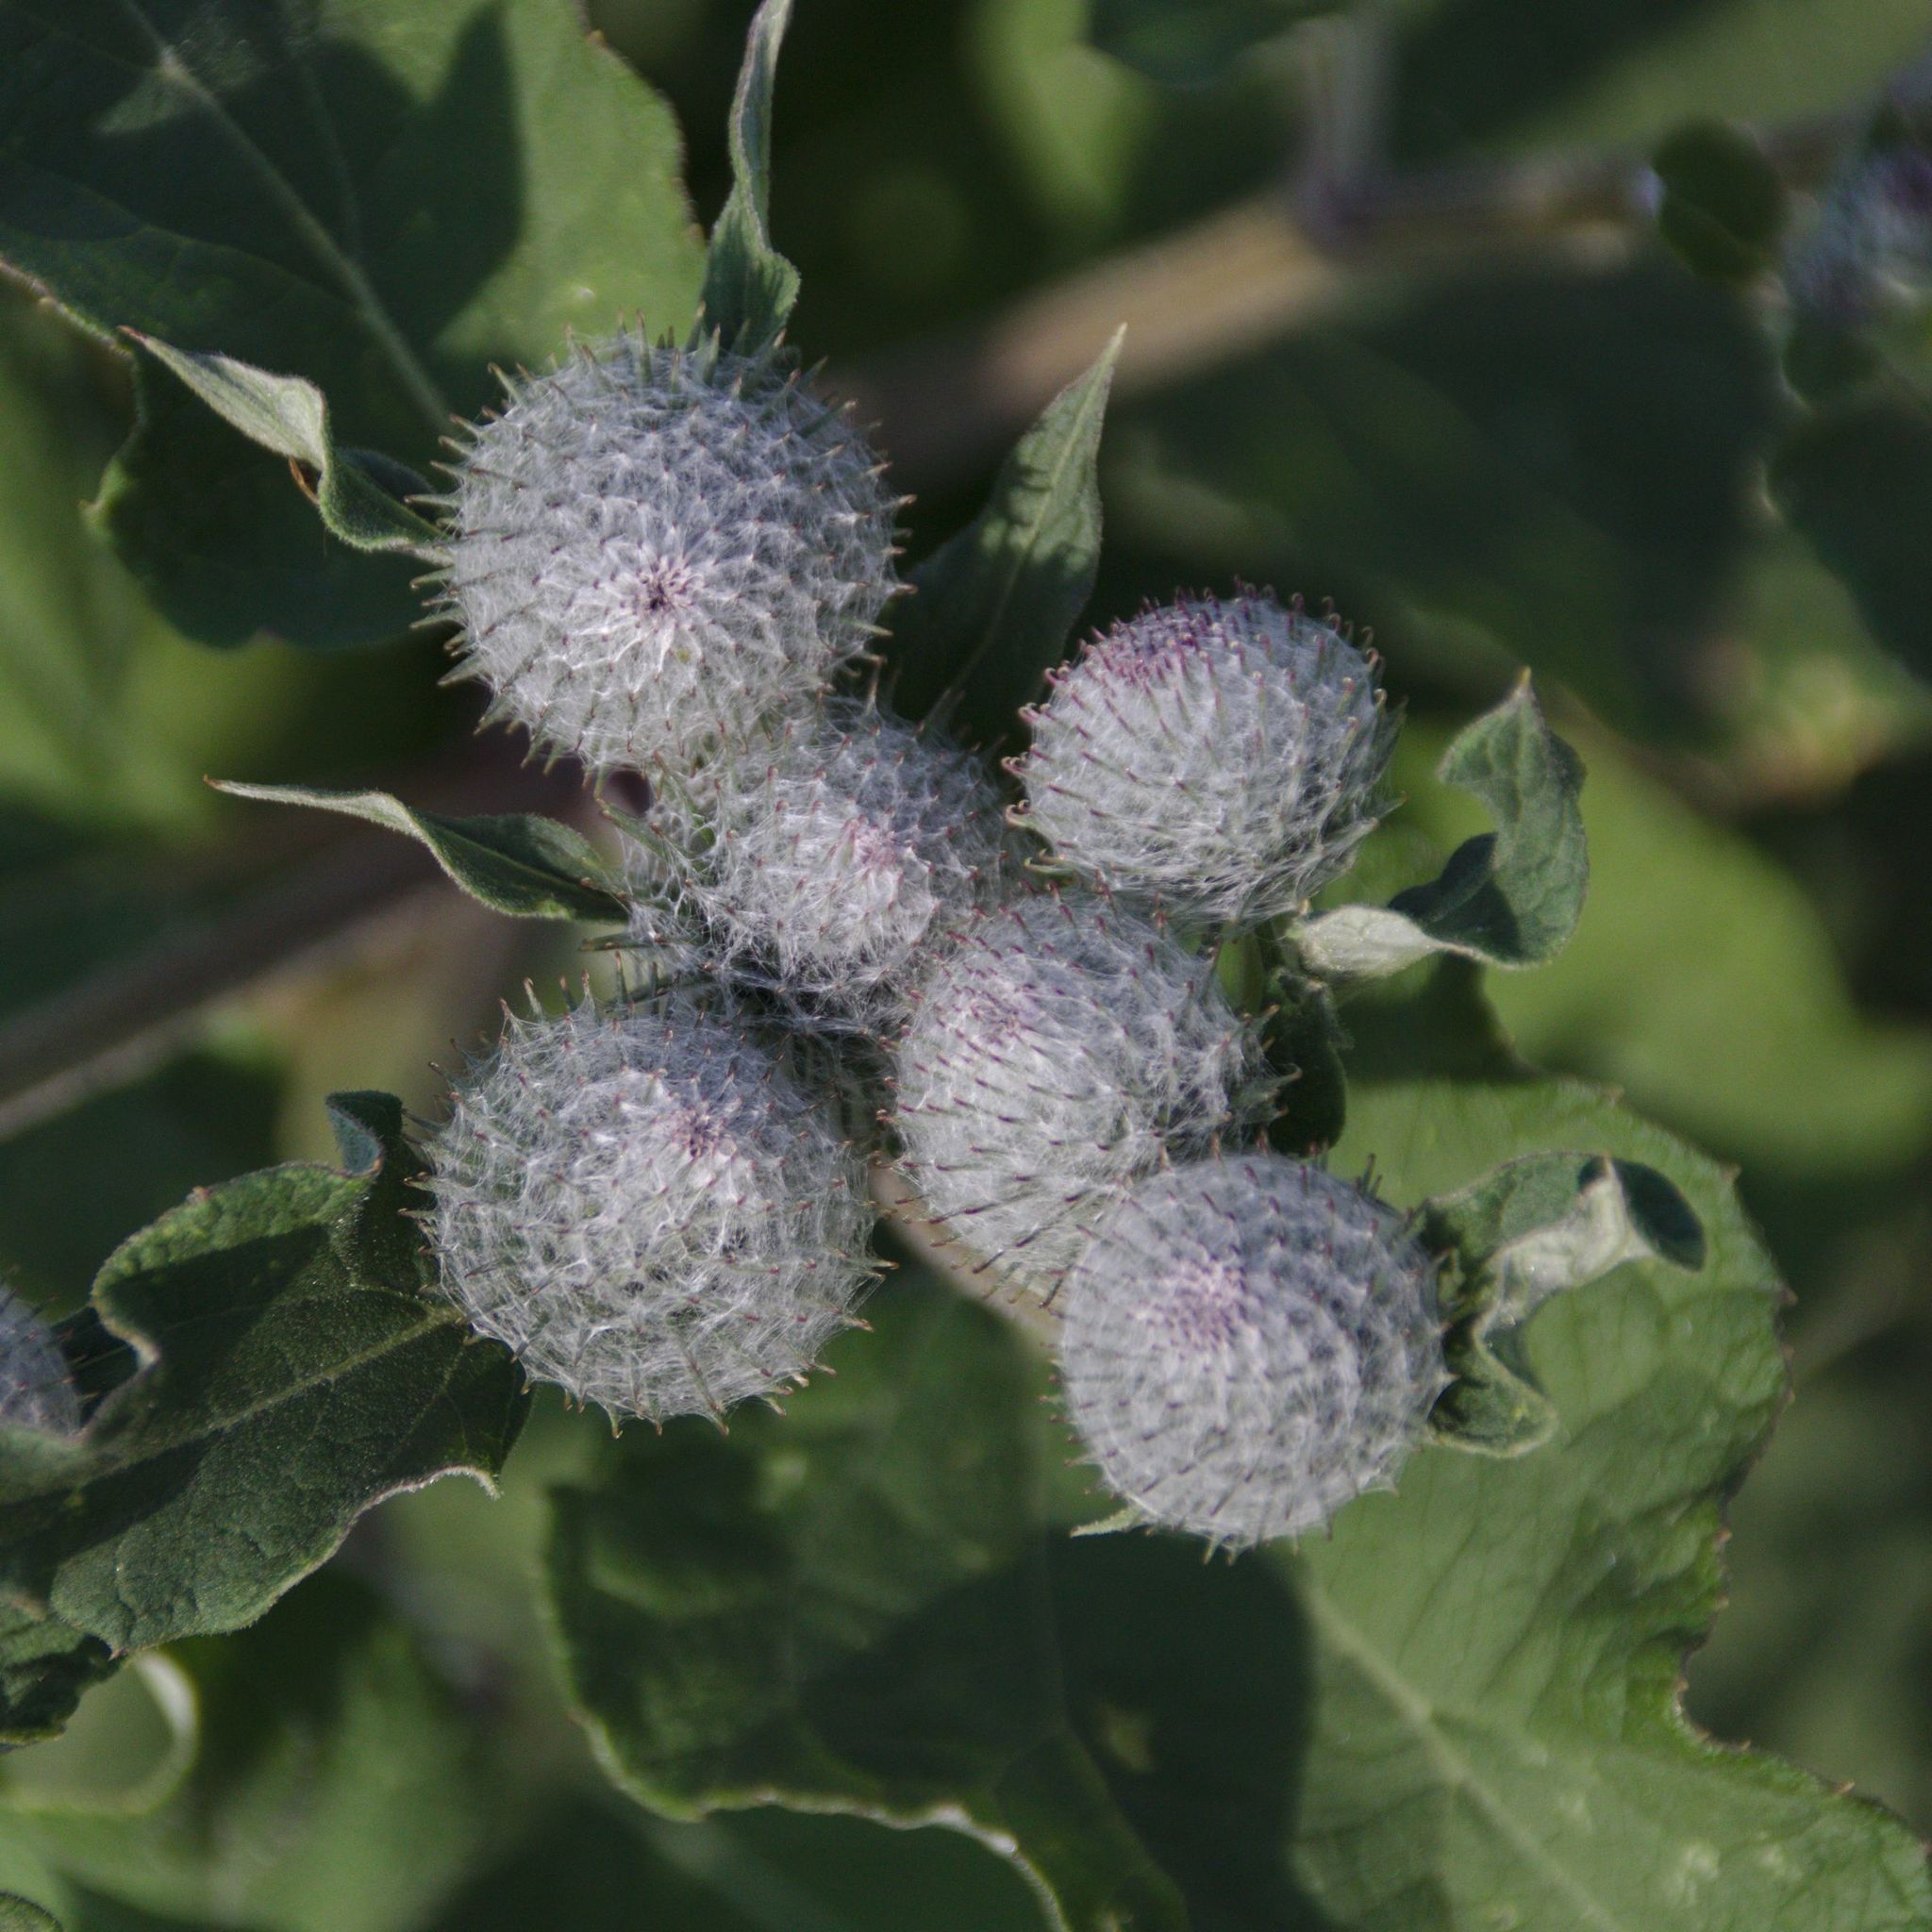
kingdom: Plantae
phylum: Tracheophyta
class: Magnoliopsida
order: Asterales
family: Asteraceae
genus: Arctium
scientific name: Arctium tomentosum
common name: Woolly burdock
